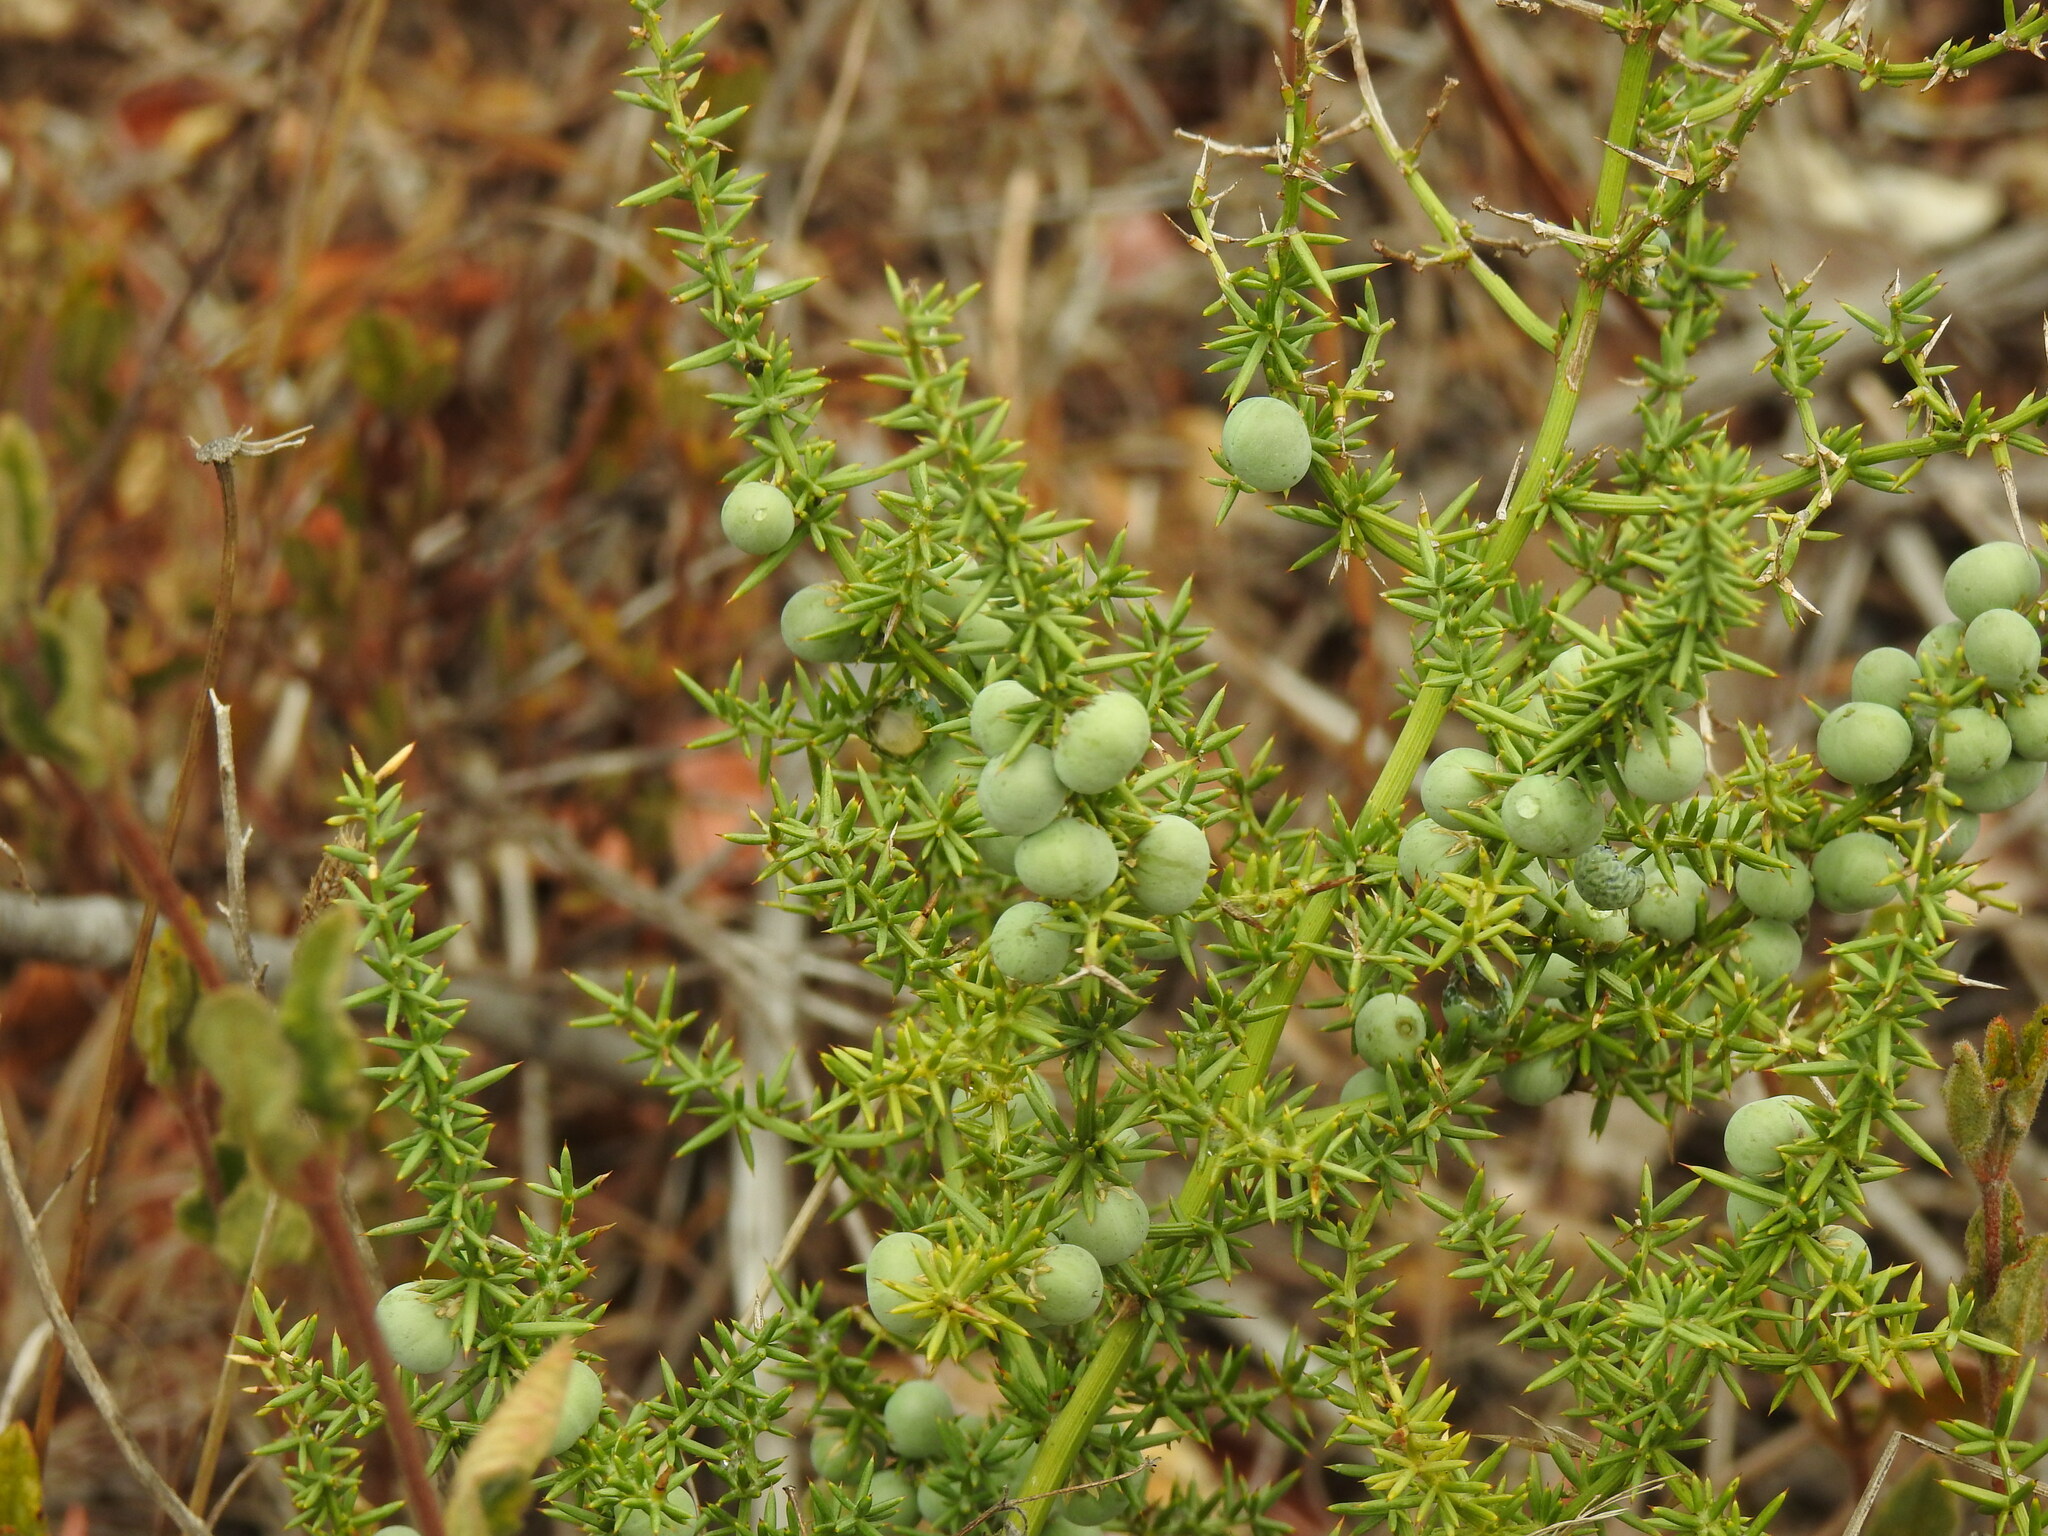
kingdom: Plantae
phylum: Tracheophyta
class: Liliopsida
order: Asparagales
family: Asparagaceae
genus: Asparagus
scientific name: Asparagus aphyllus
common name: Mediterranean asparagus
